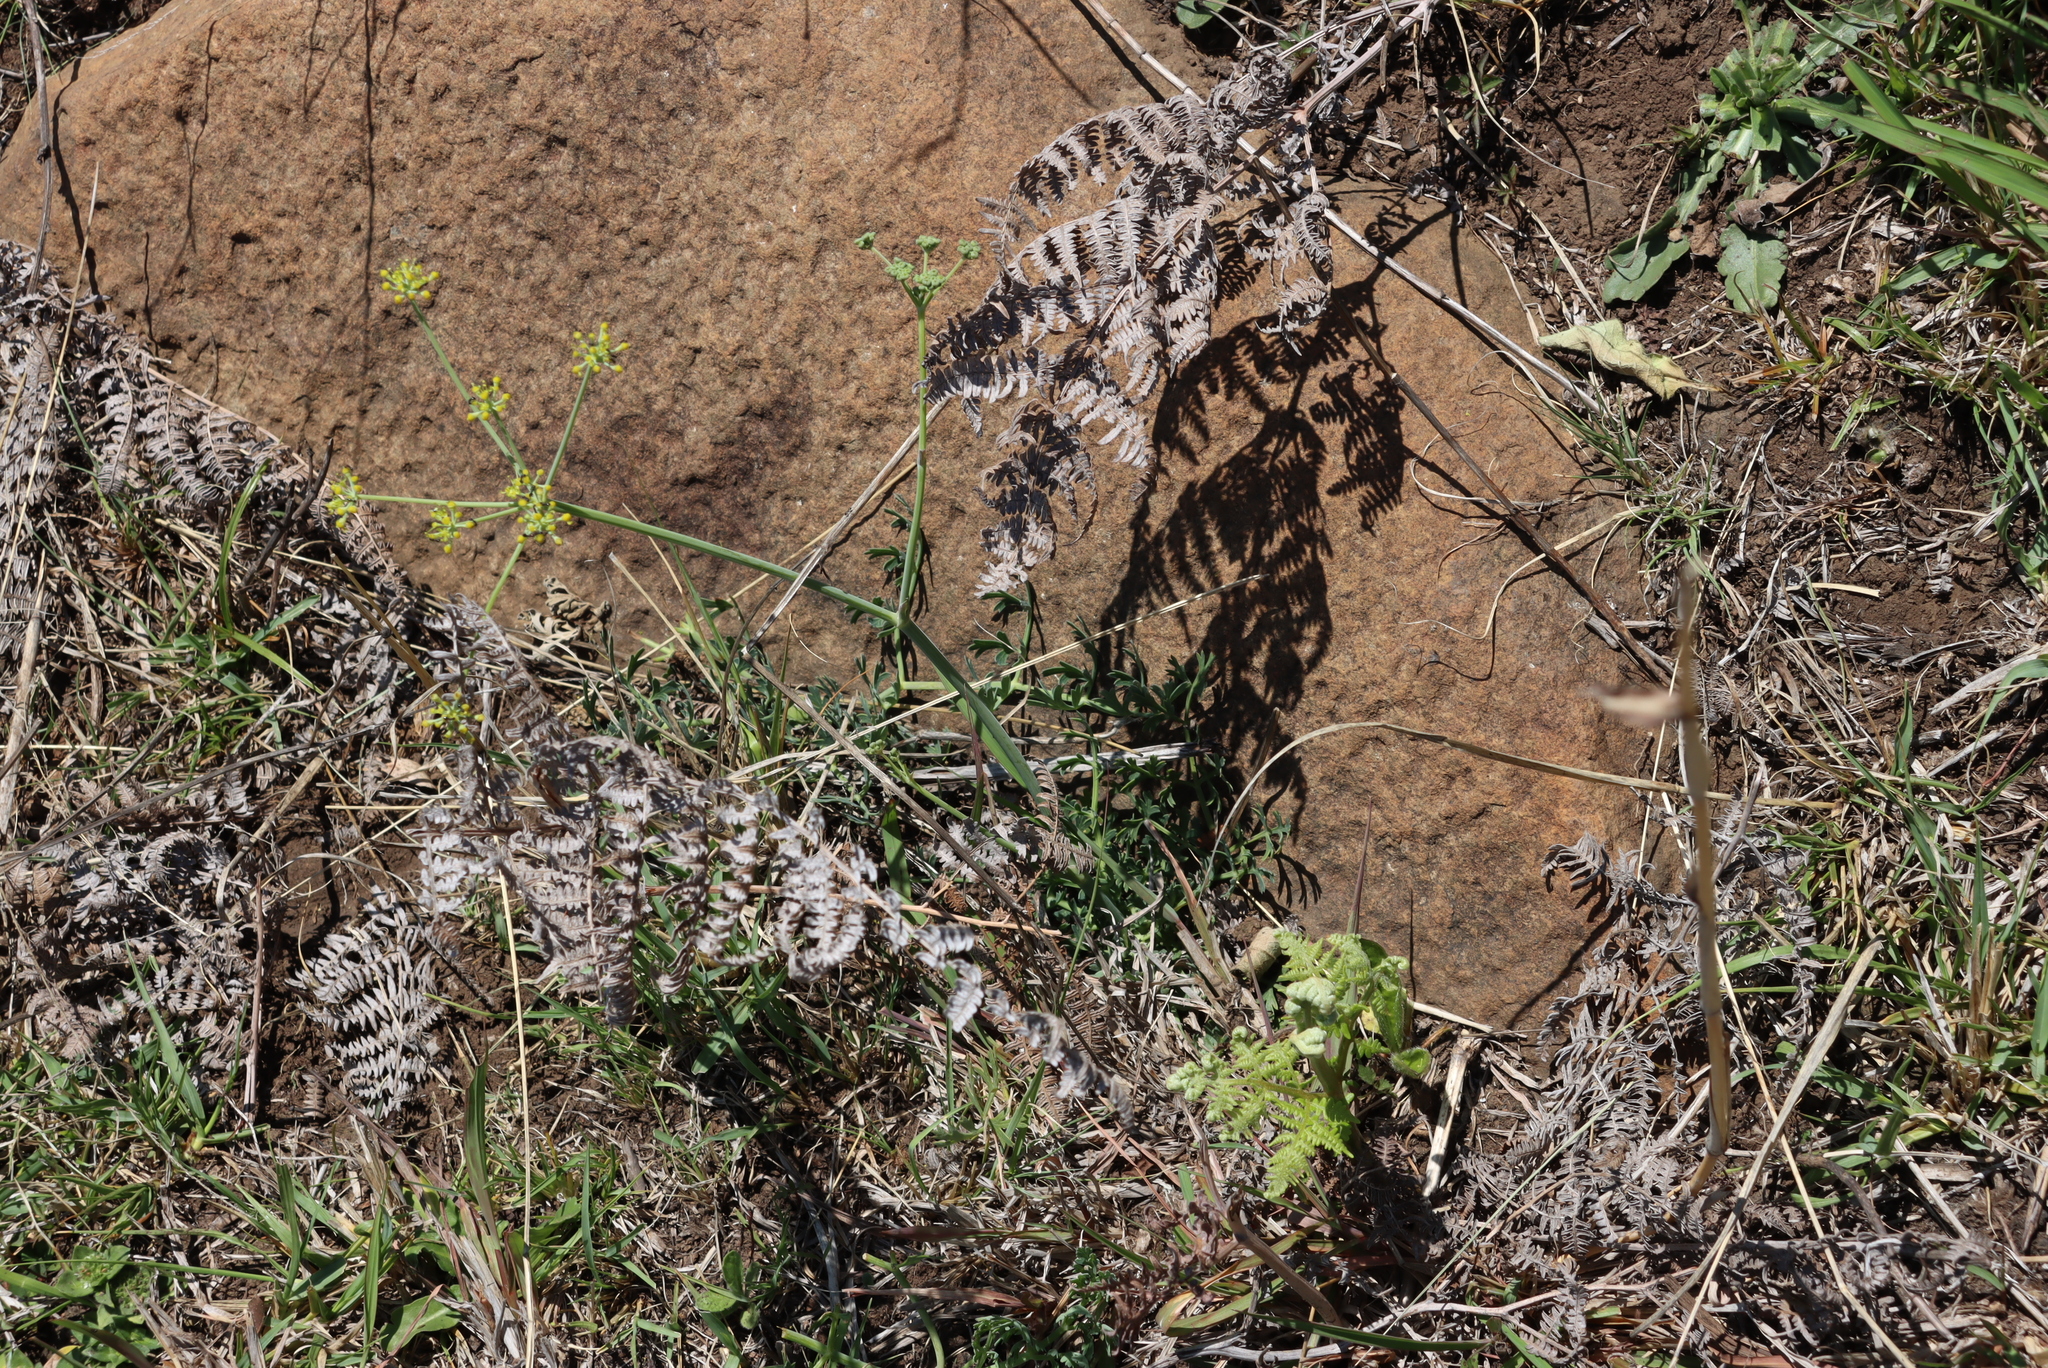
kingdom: Plantae
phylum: Tracheophyta
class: Magnoliopsida
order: Apiales
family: Apiaceae
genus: Afrosciadium
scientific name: Afrosciadium platycarpum
